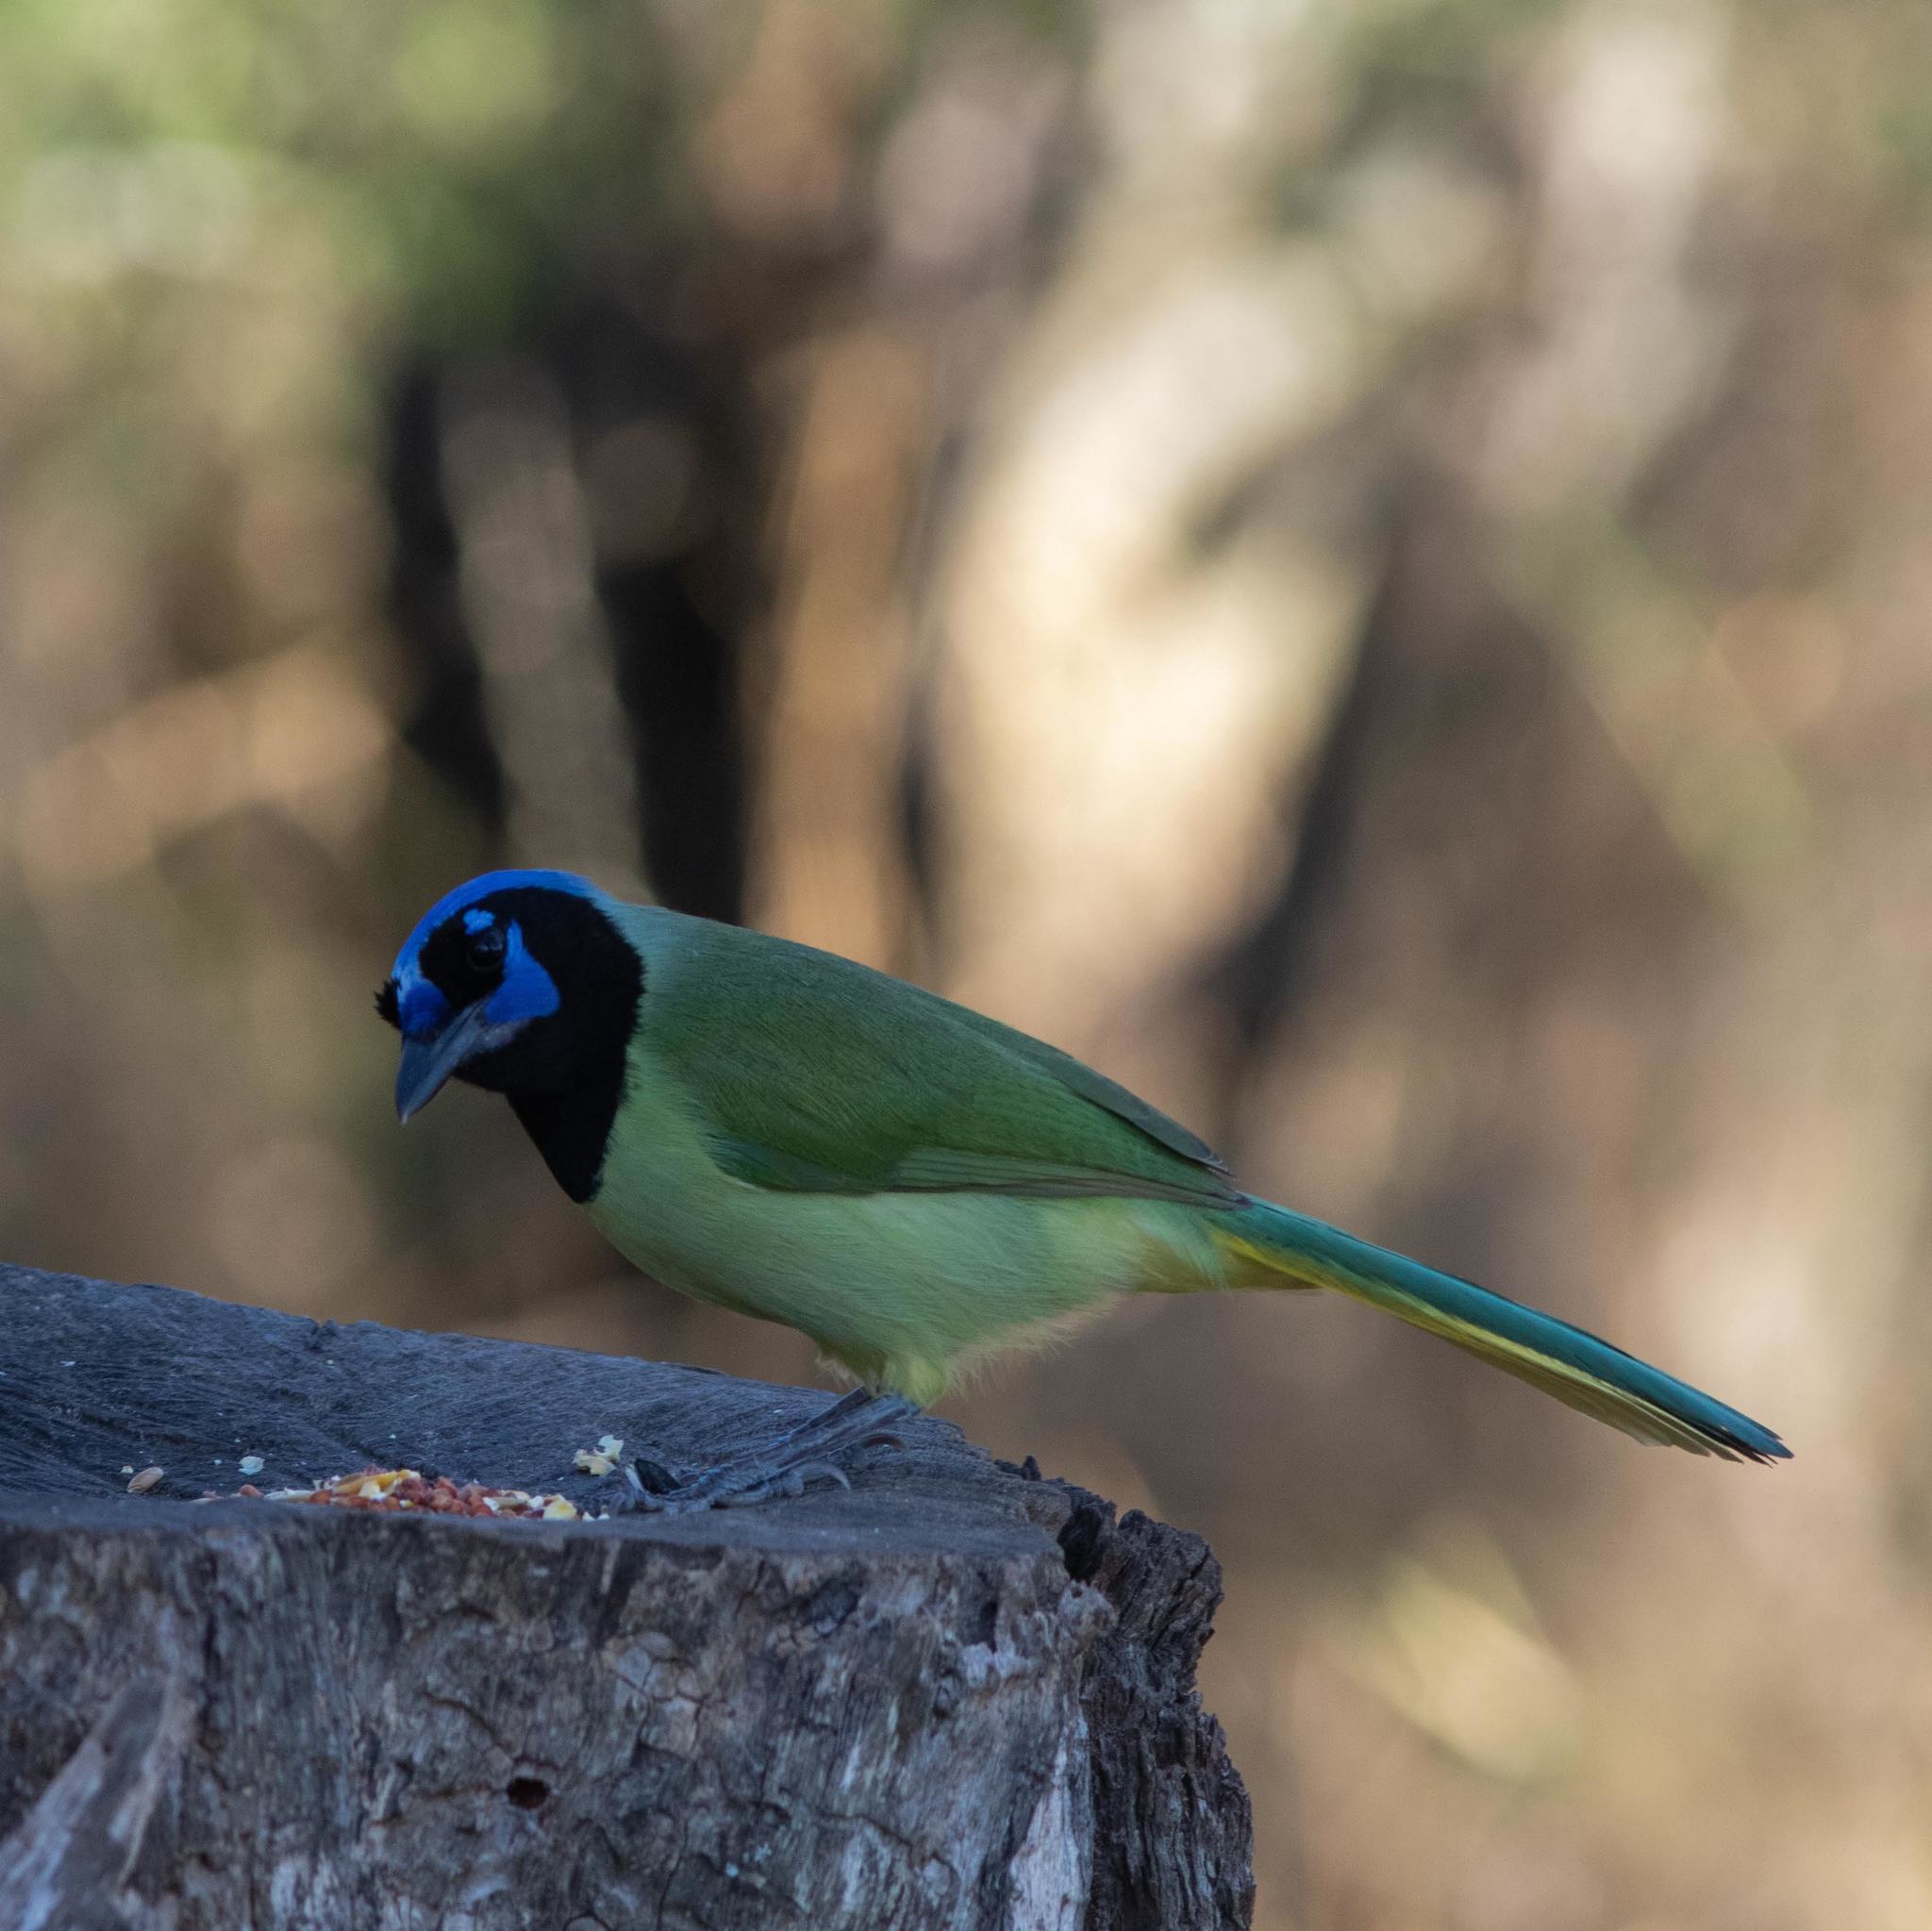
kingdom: Animalia
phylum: Chordata
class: Aves
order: Passeriformes
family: Corvidae
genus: Cyanocorax
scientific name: Cyanocorax yncas
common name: Green jay
